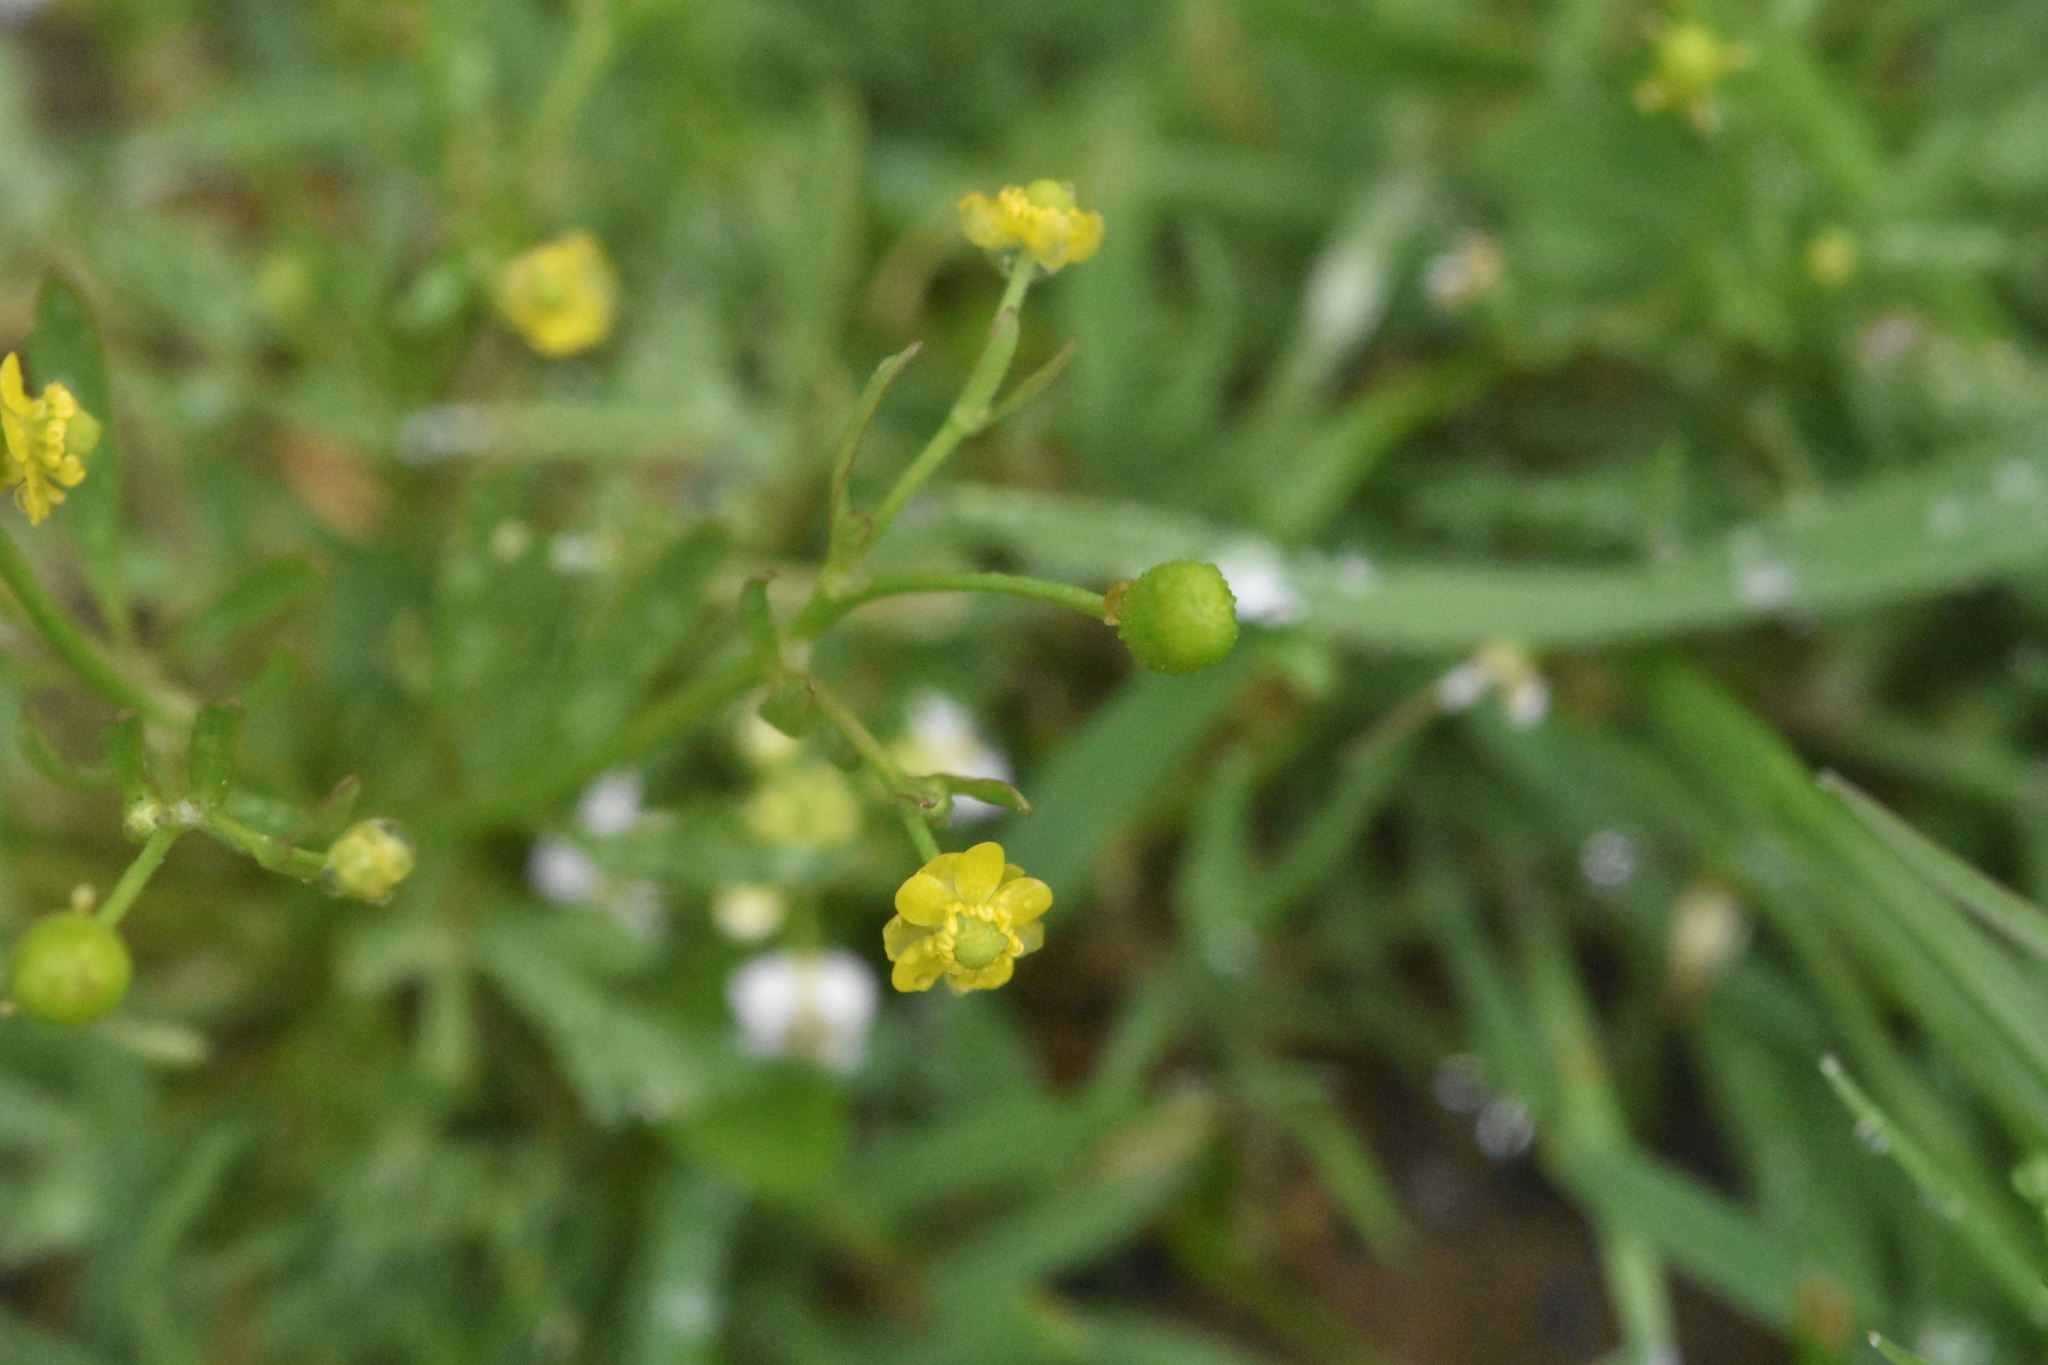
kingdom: Plantae
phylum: Tracheophyta
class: Magnoliopsida
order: Ranunculales
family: Ranunculaceae
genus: Ranunculus
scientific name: Ranunculus sceleratus
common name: Celery-leaved buttercup
